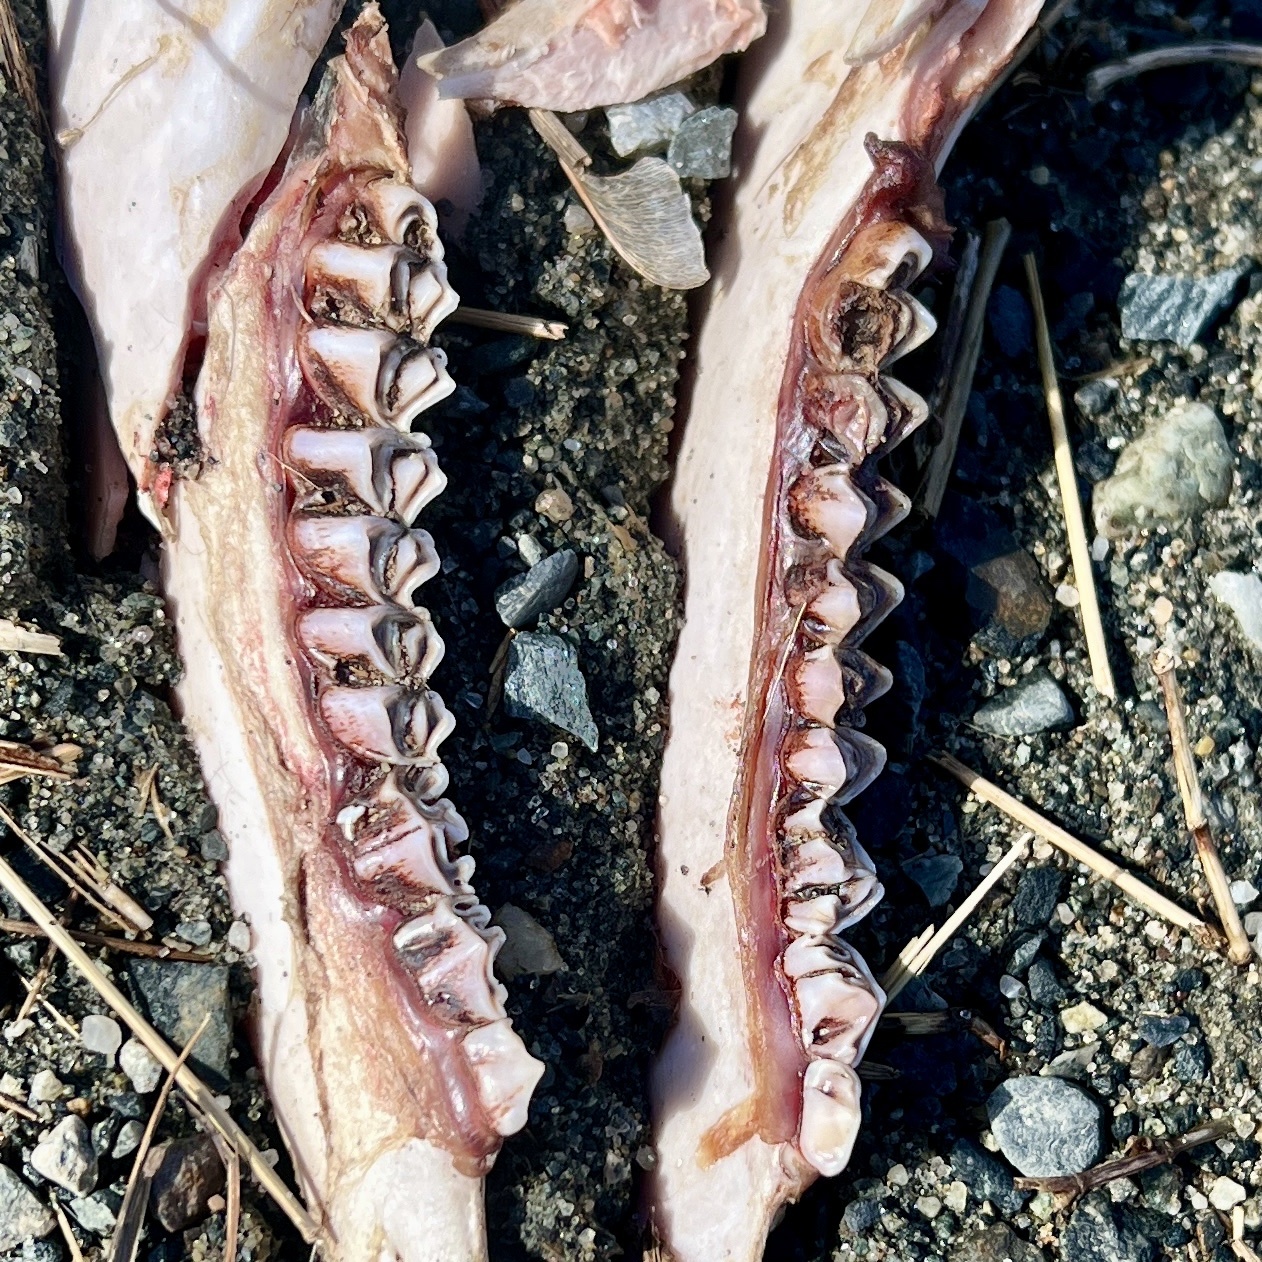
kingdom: Animalia
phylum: Chordata
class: Mammalia
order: Artiodactyla
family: Cervidae
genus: Odocoileus
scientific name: Odocoileus virginianus
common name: White-tailed deer
